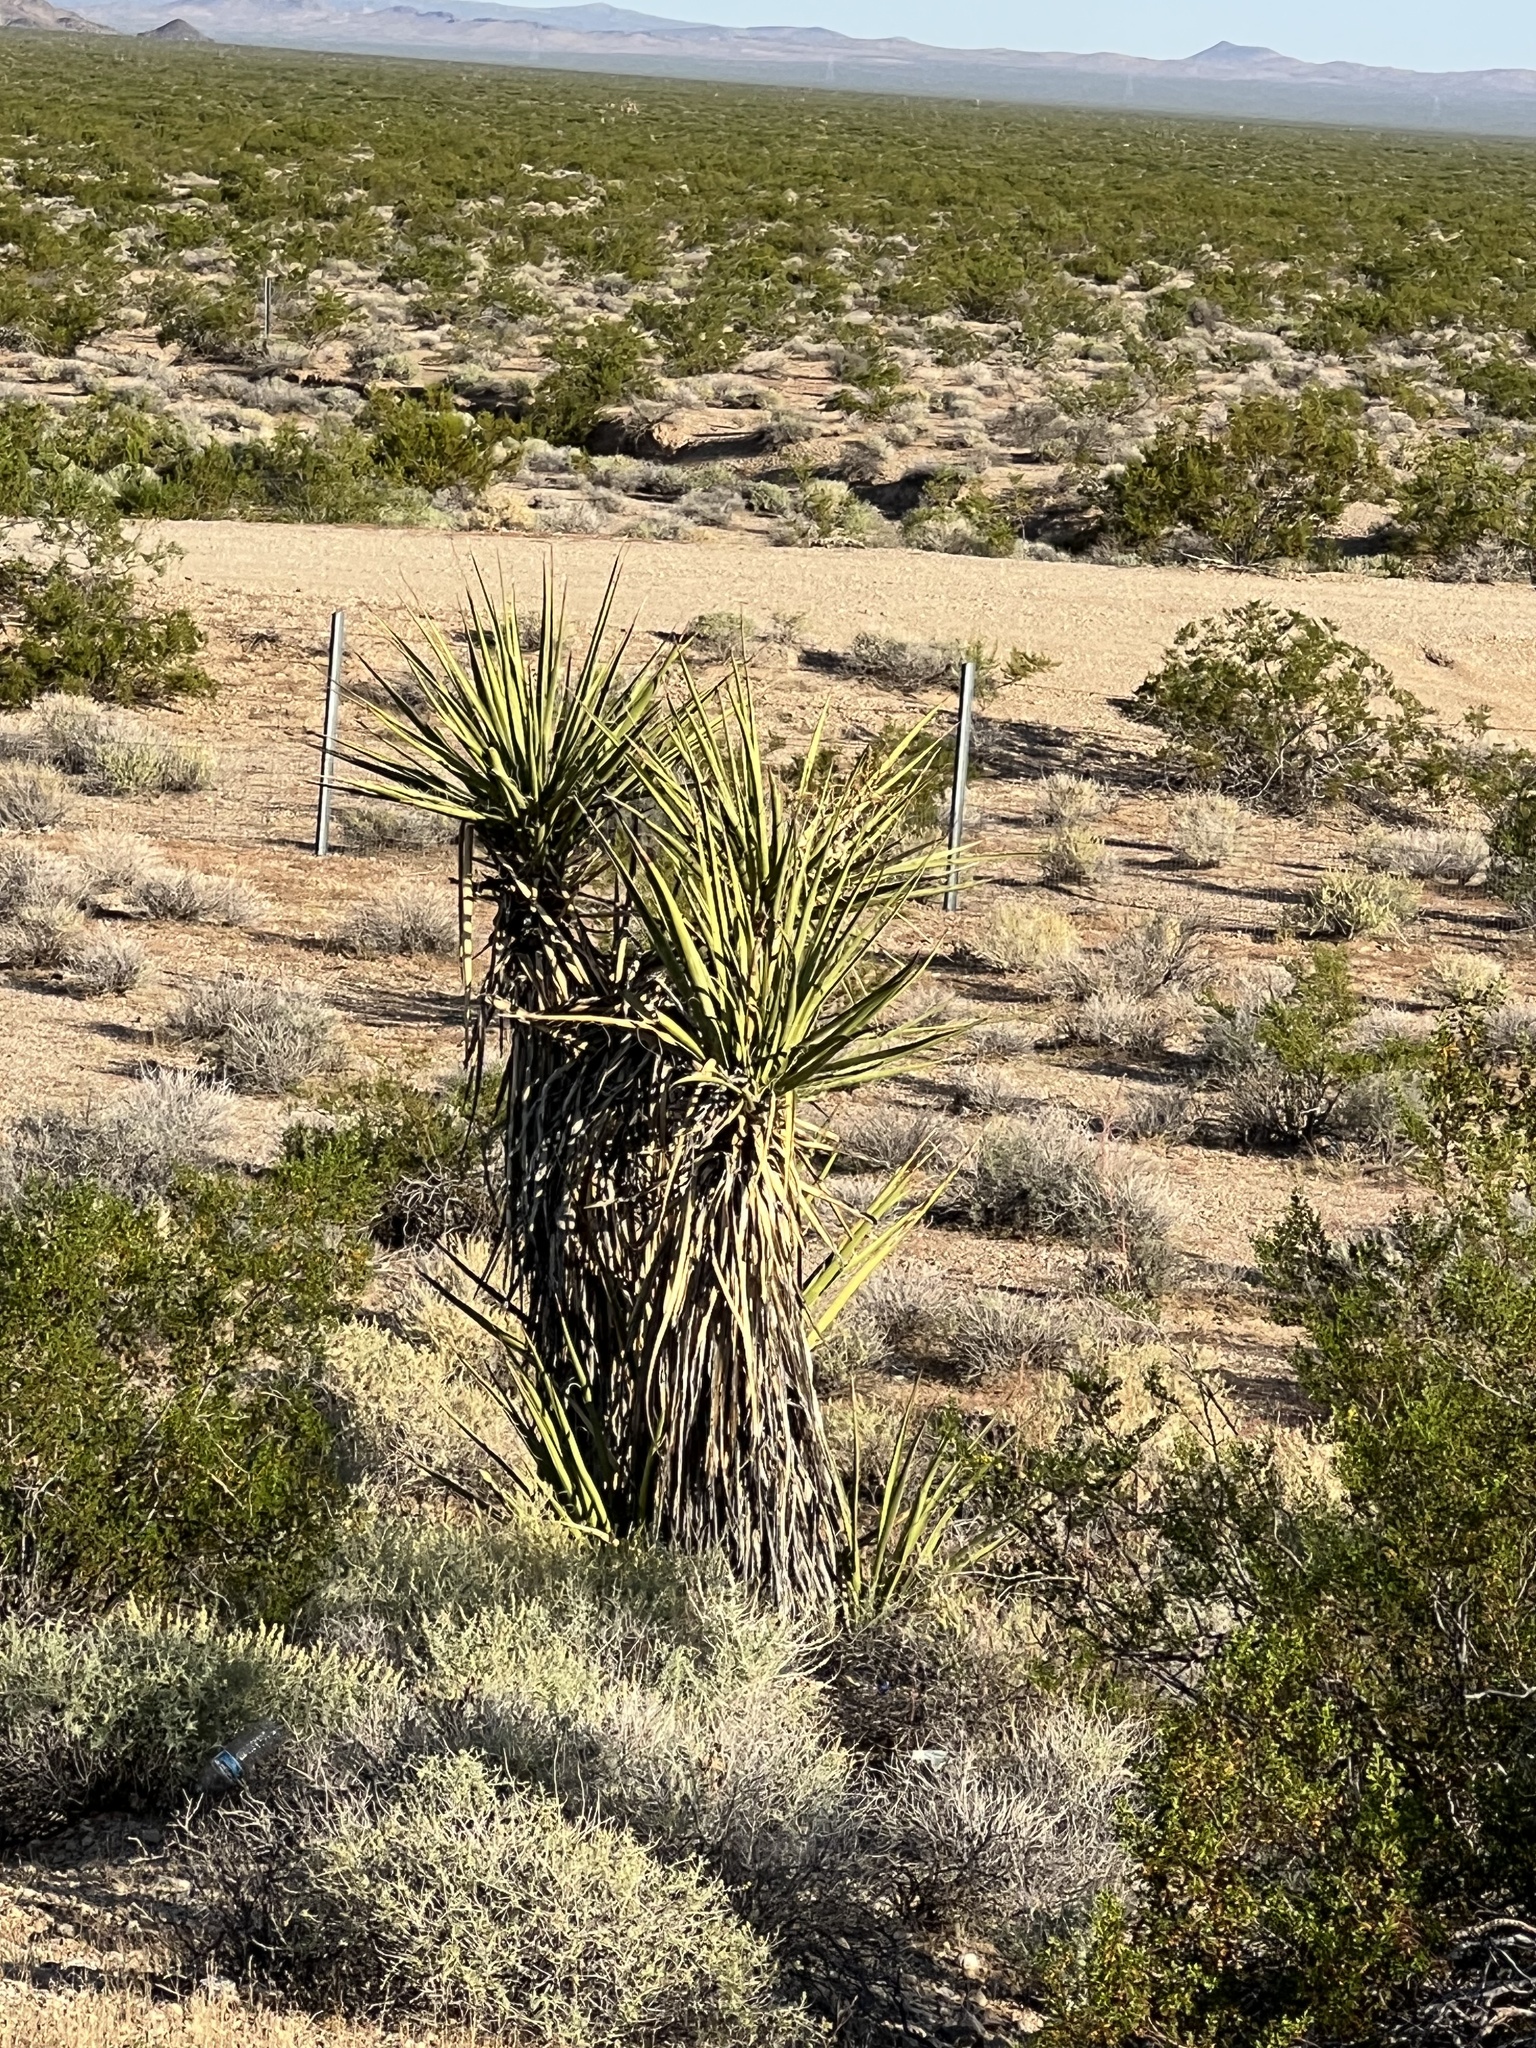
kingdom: Plantae
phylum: Tracheophyta
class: Liliopsida
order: Asparagales
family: Asparagaceae
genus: Yucca
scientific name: Yucca schidigera
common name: Mojave yucca
